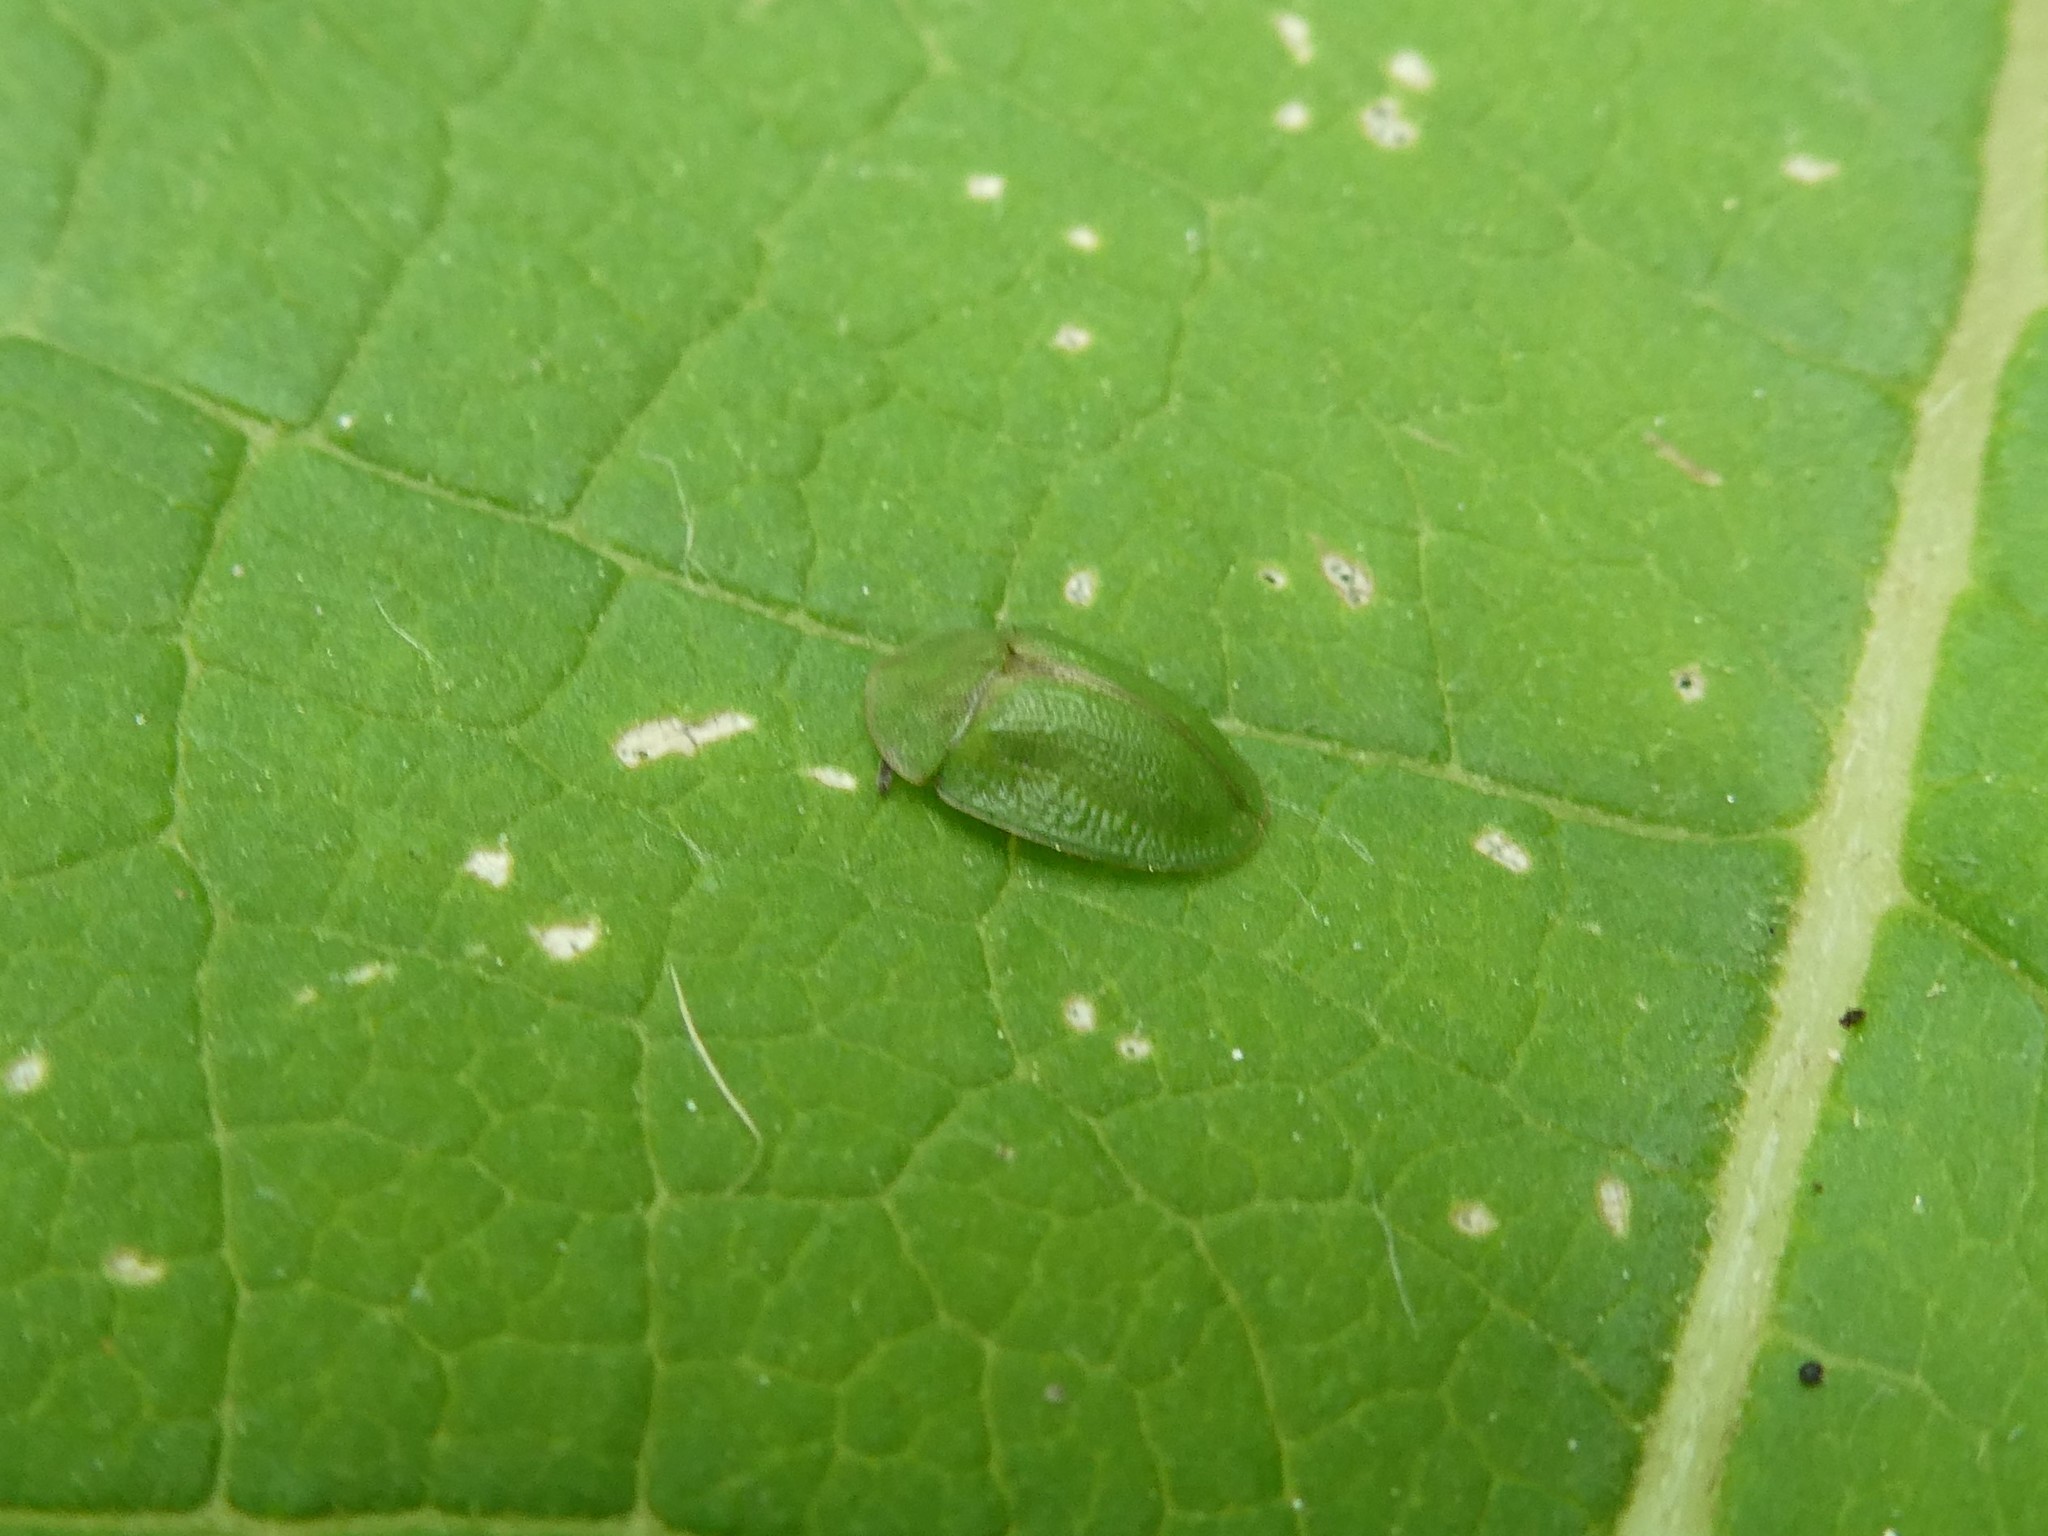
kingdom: Animalia
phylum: Arthropoda
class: Insecta
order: Coleoptera
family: Chrysomelidae
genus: Cassida
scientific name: Cassida rubiginosa
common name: Thistle tortoise beetle
